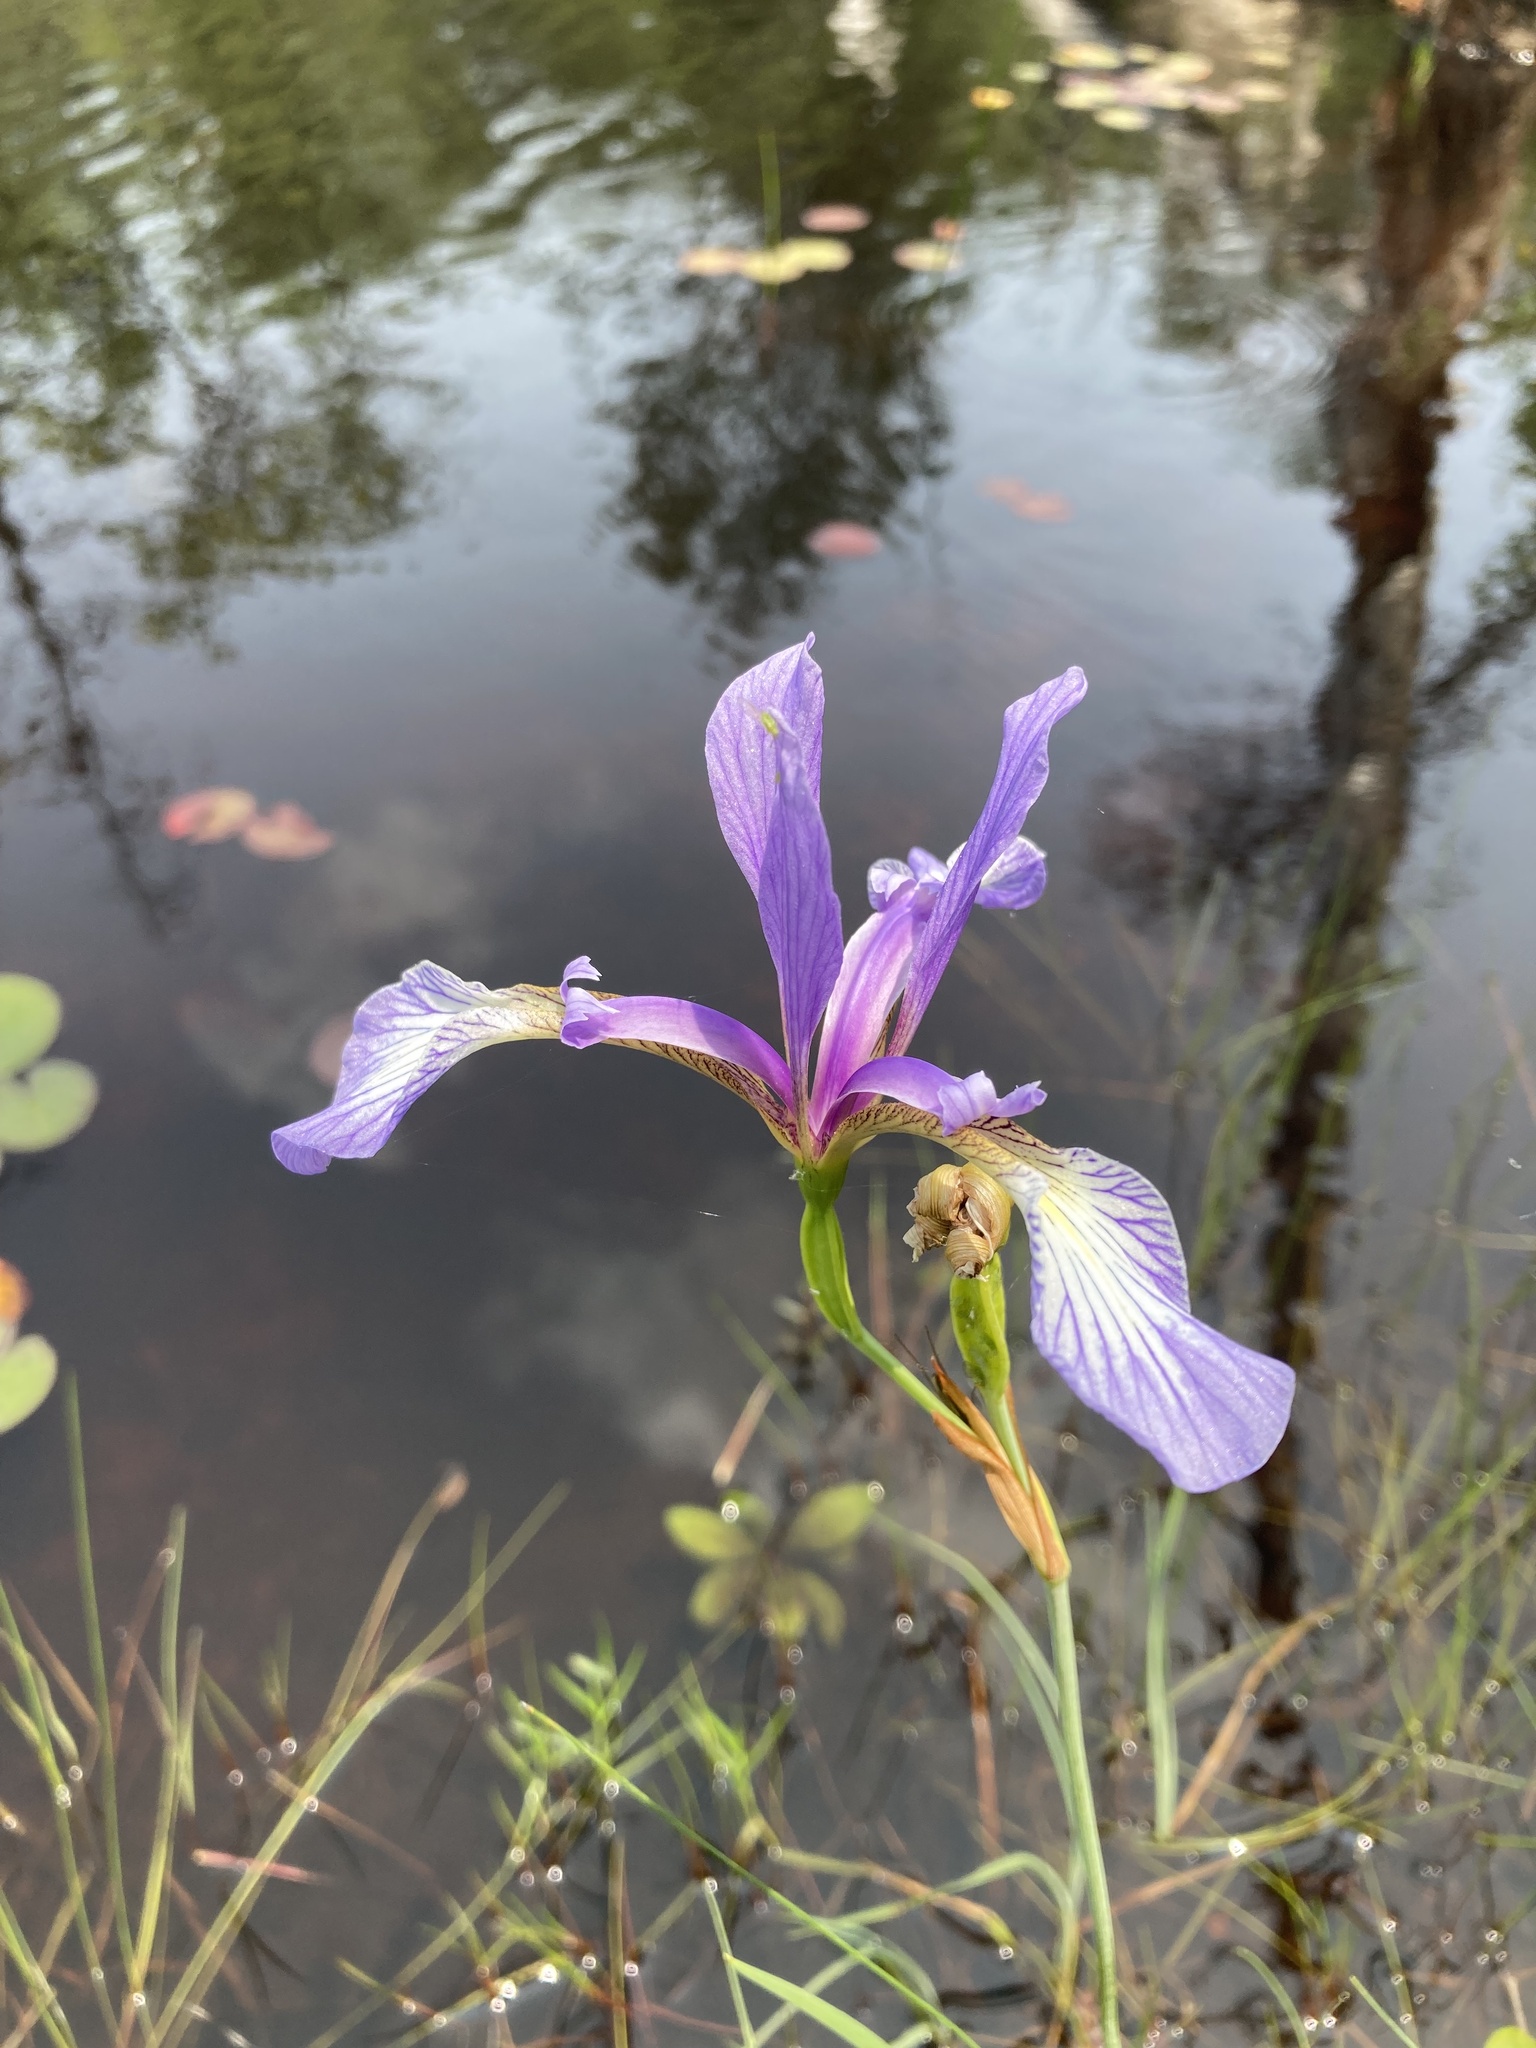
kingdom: Plantae
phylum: Tracheophyta
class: Liliopsida
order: Asparagales
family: Iridaceae
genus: Iris
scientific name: Iris prismatica
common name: Slender blue flag
